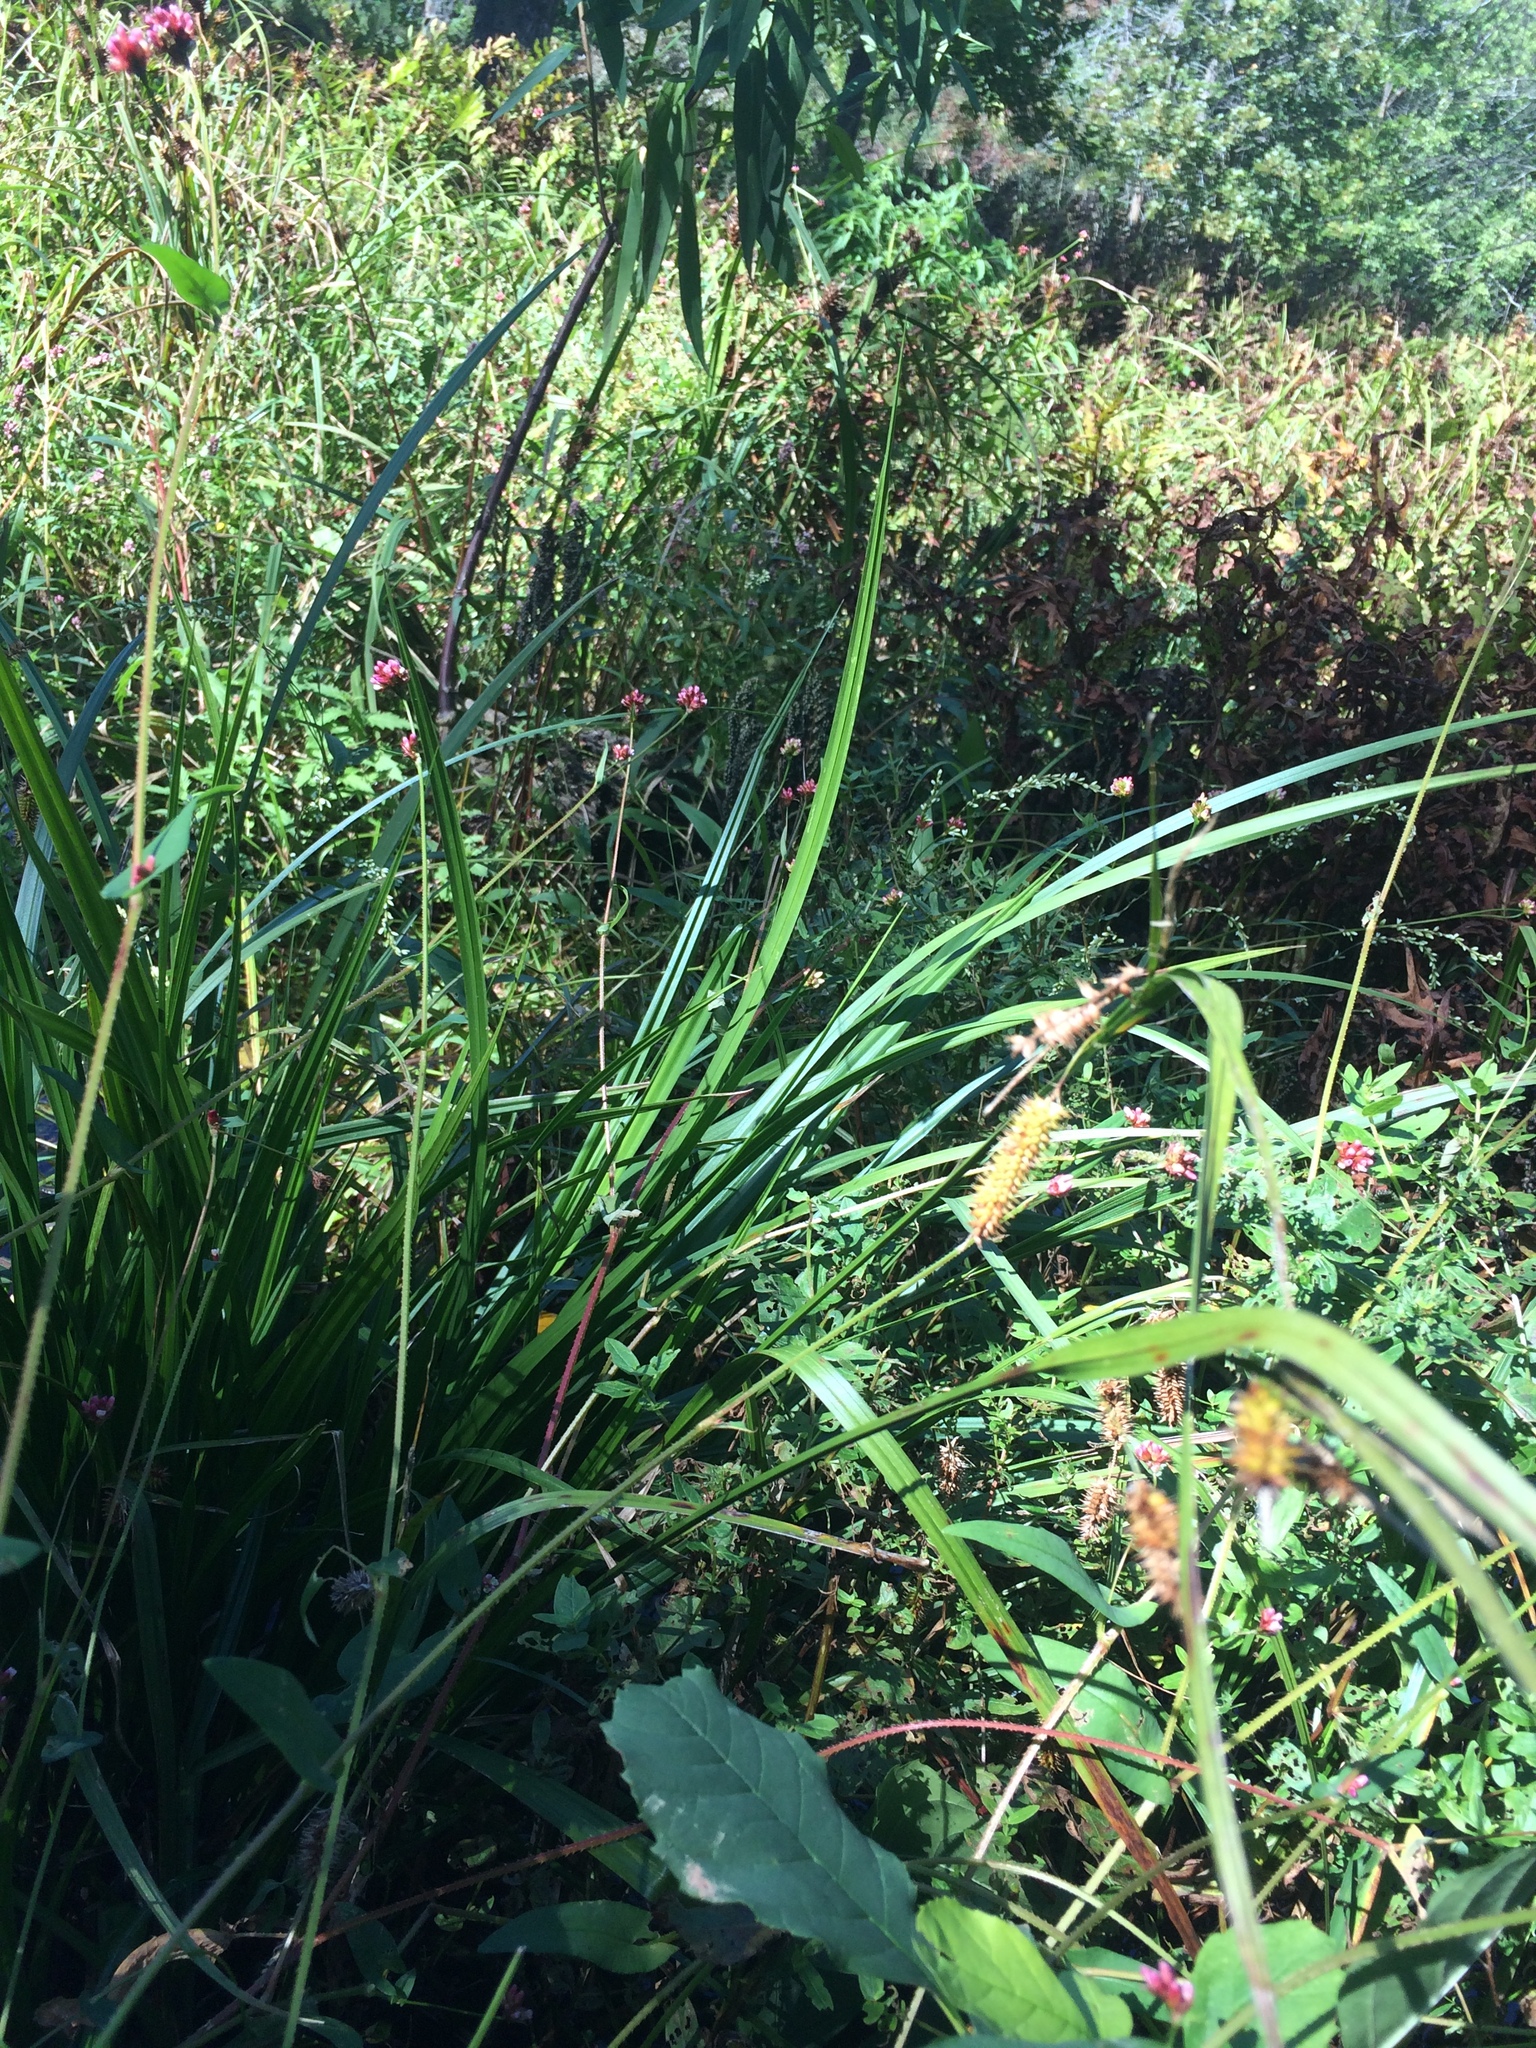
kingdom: Plantae
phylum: Tracheophyta
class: Liliopsida
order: Poales
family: Cyperaceae
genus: Carex
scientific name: Carex pseudocyperus
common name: Cyperus sedge
